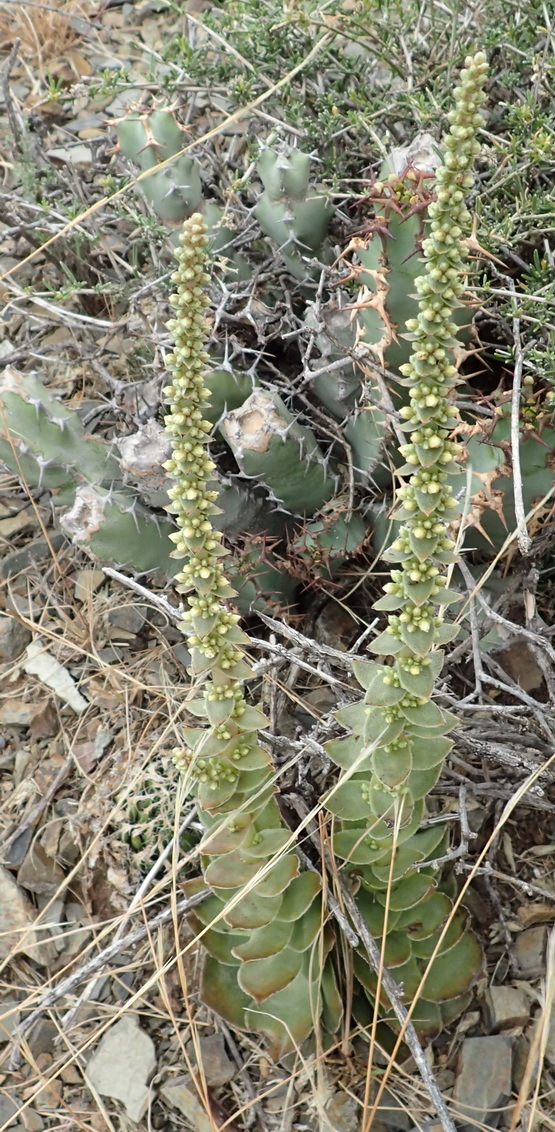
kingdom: Plantae
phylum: Tracheophyta
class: Magnoliopsida
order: Saxifragales
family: Crassulaceae
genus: Crassula
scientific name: Crassula capitella
